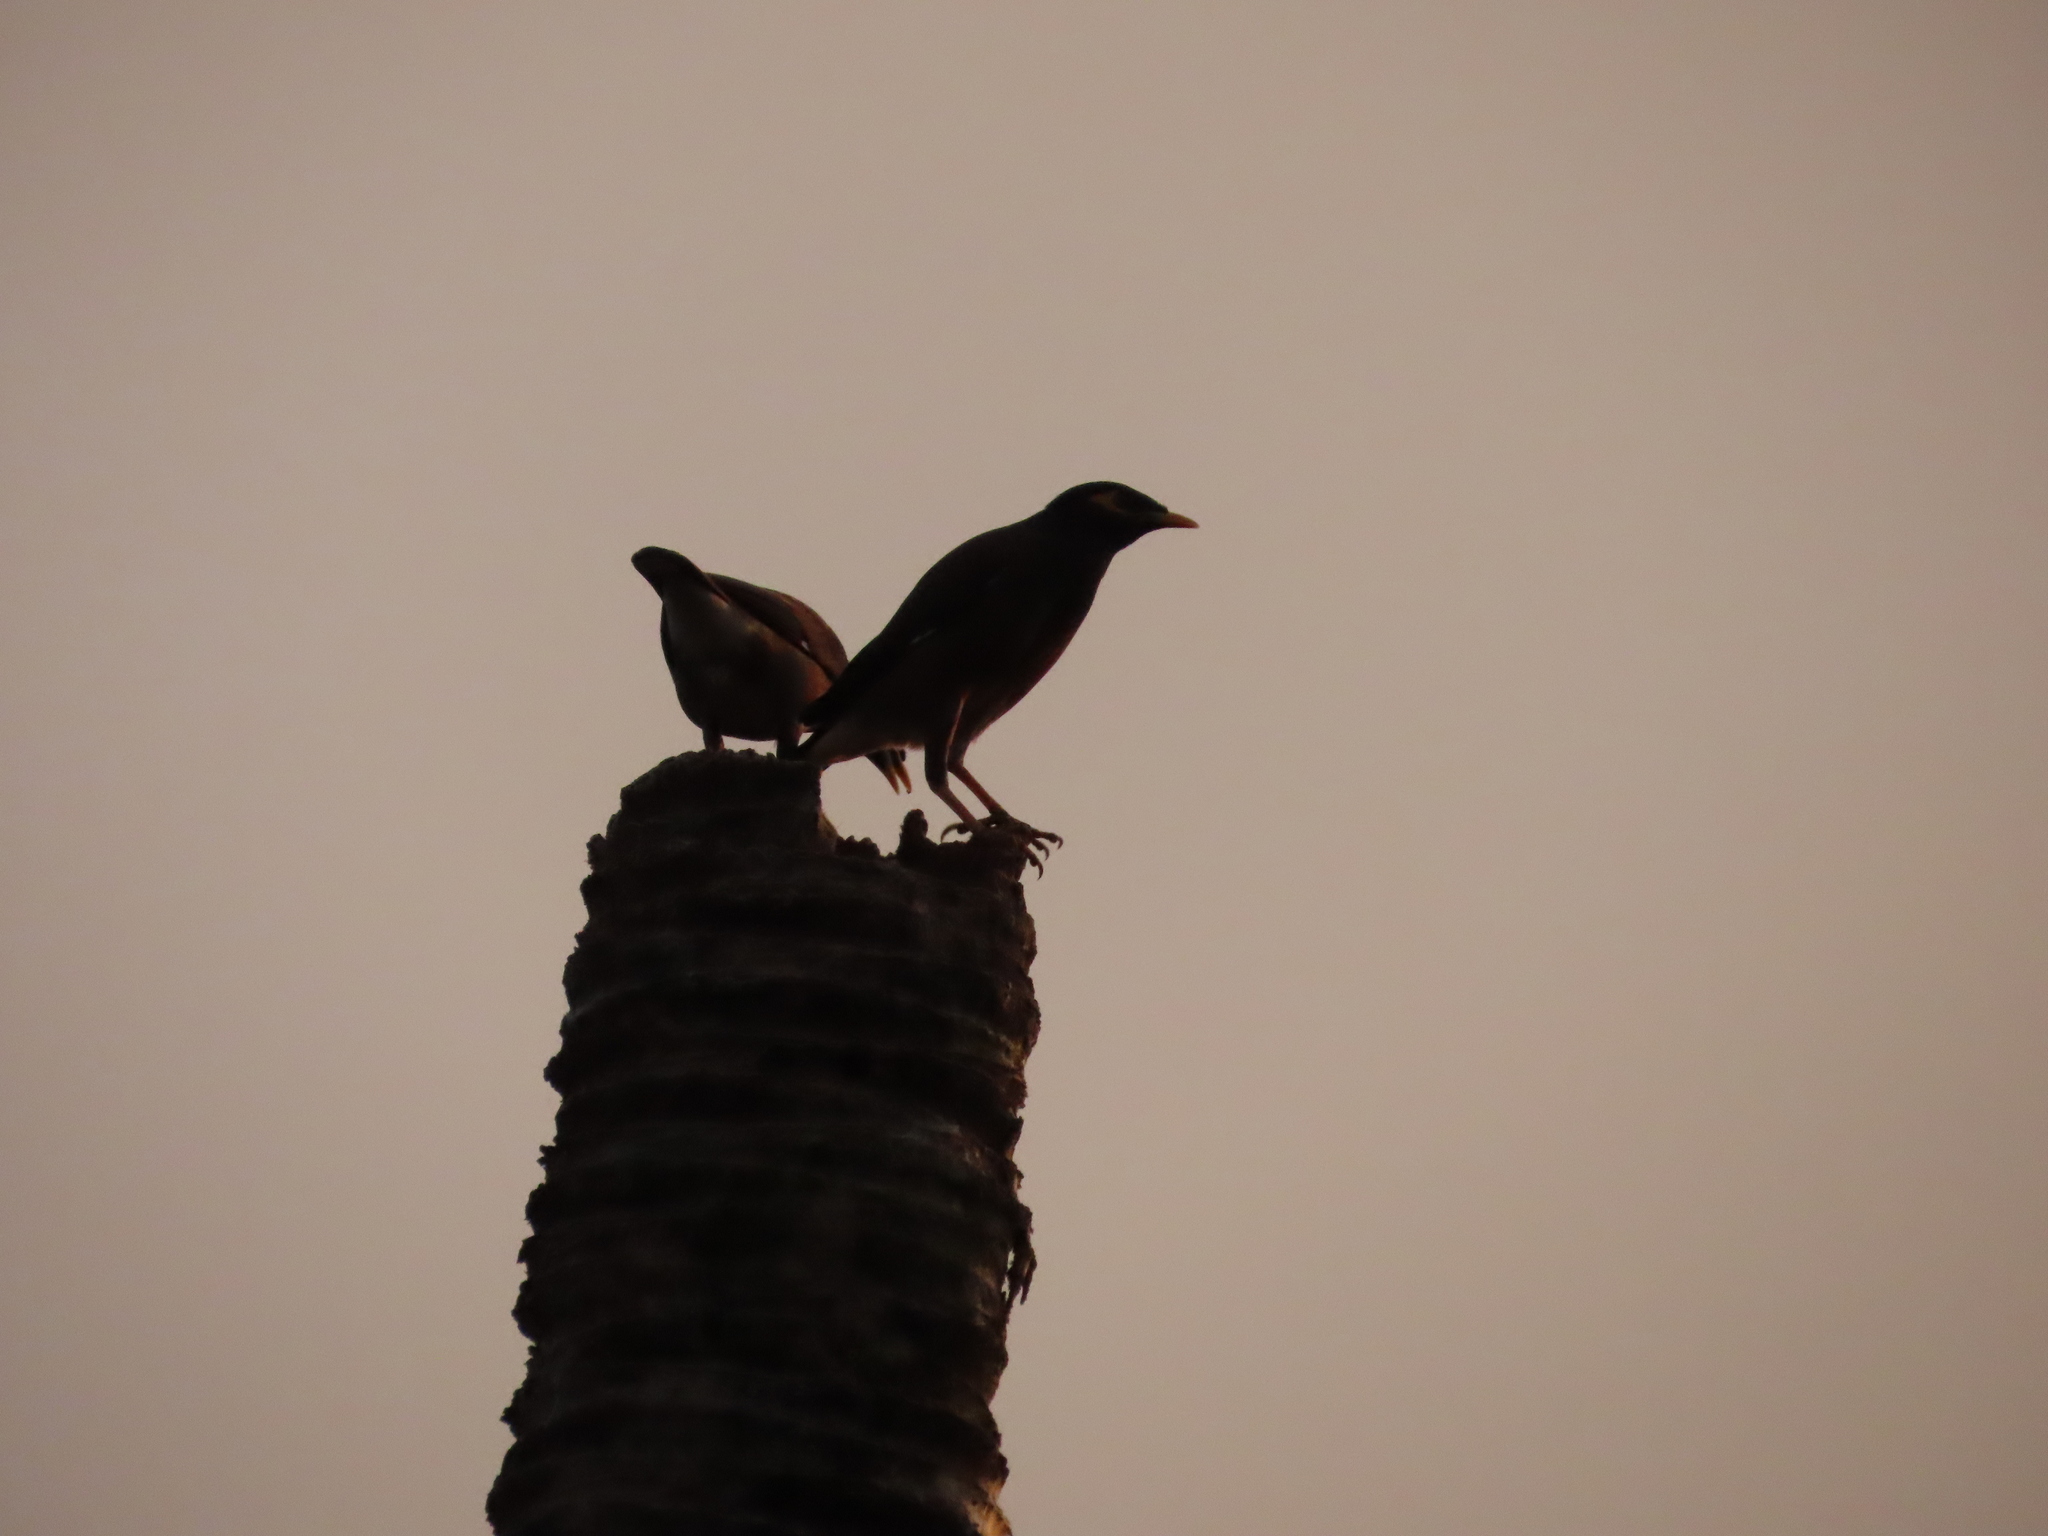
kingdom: Animalia
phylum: Chordata
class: Aves
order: Passeriformes
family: Sturnidae
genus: Acridotheres
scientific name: Acridotheres tristis
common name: Common myna
